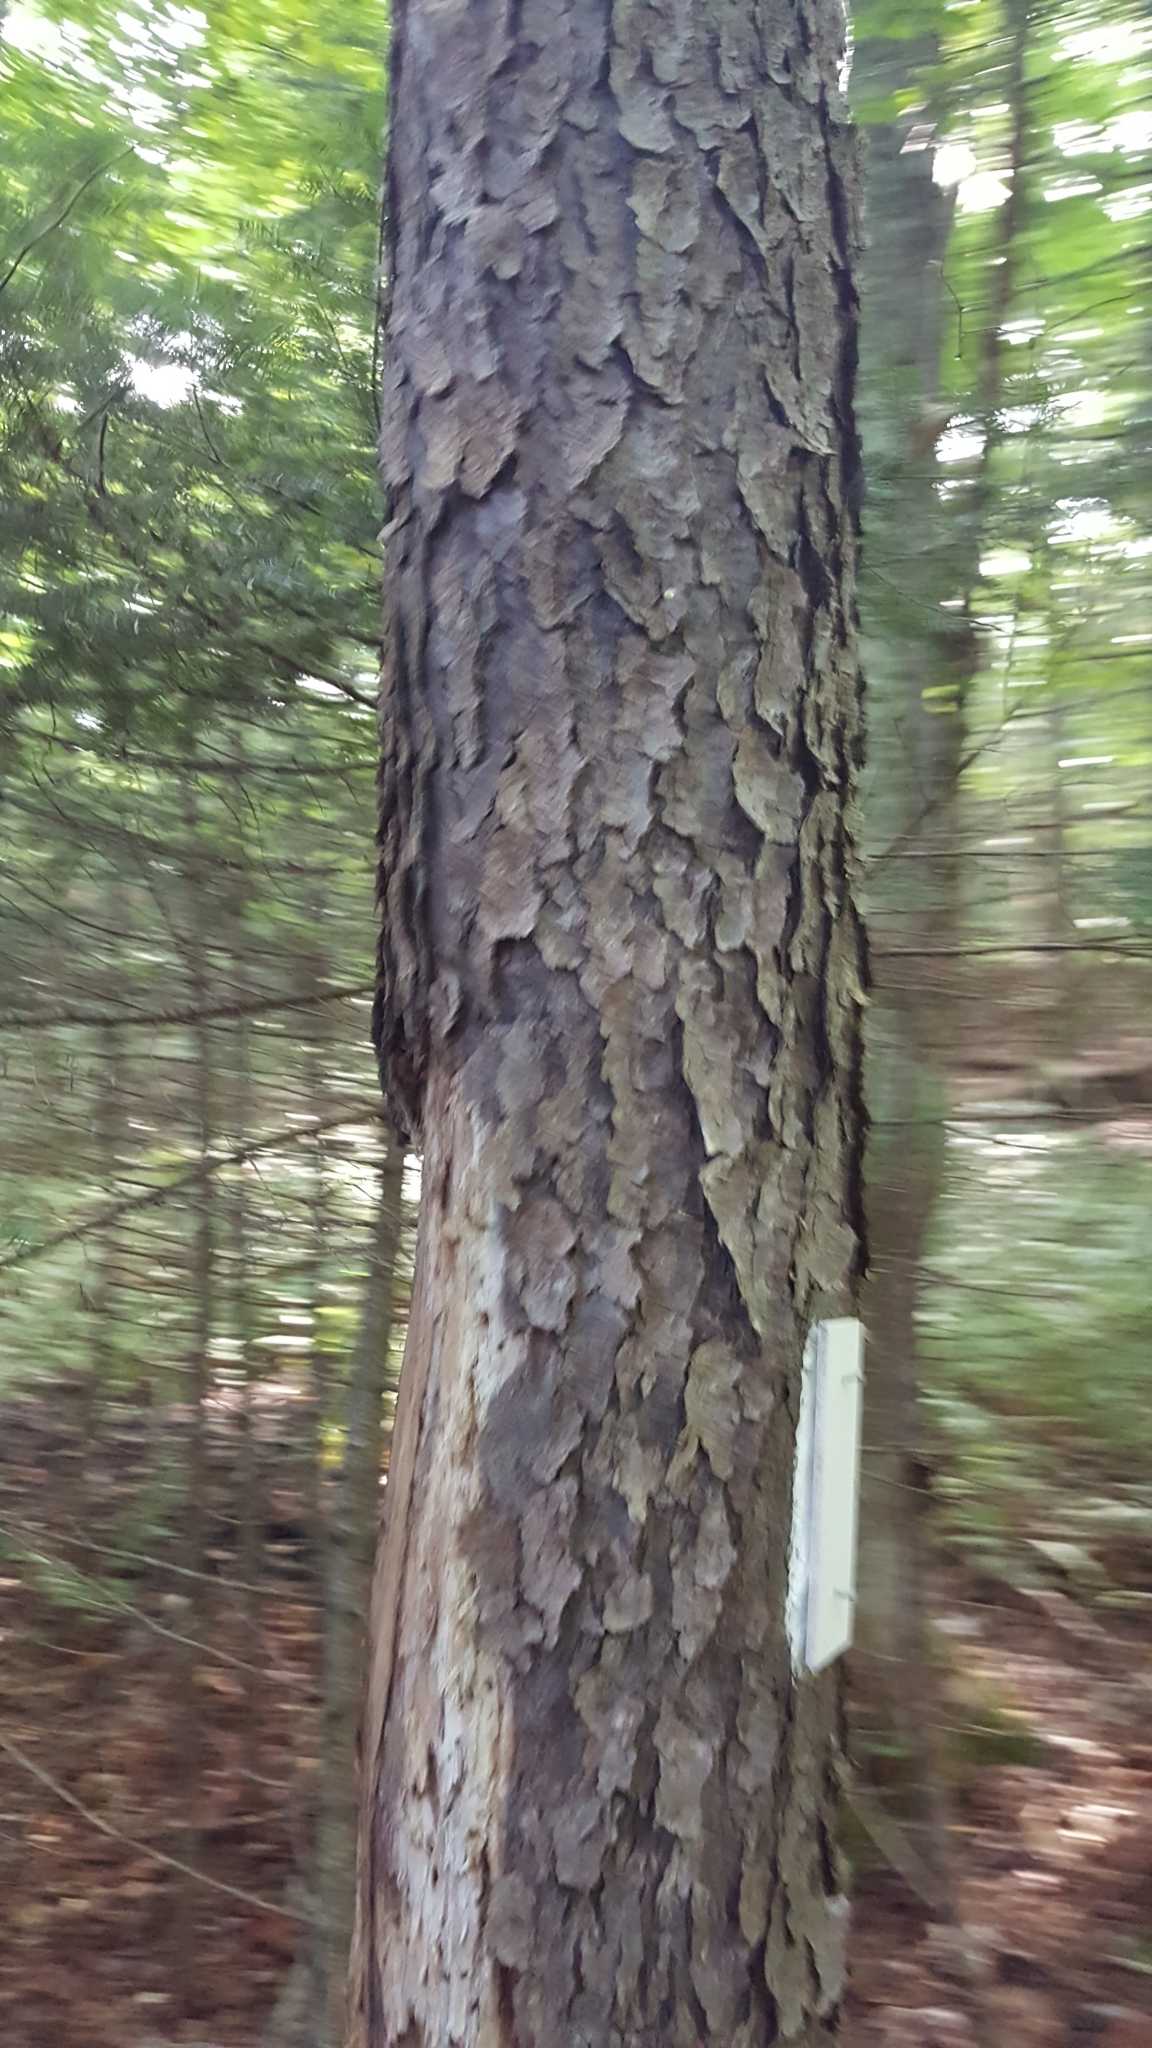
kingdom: Plantae
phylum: Tracheophyta
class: Magnoliopsida
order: Rosales
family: Rosaceae
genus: Prunus
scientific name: Prunus serotina
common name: Black cherry
